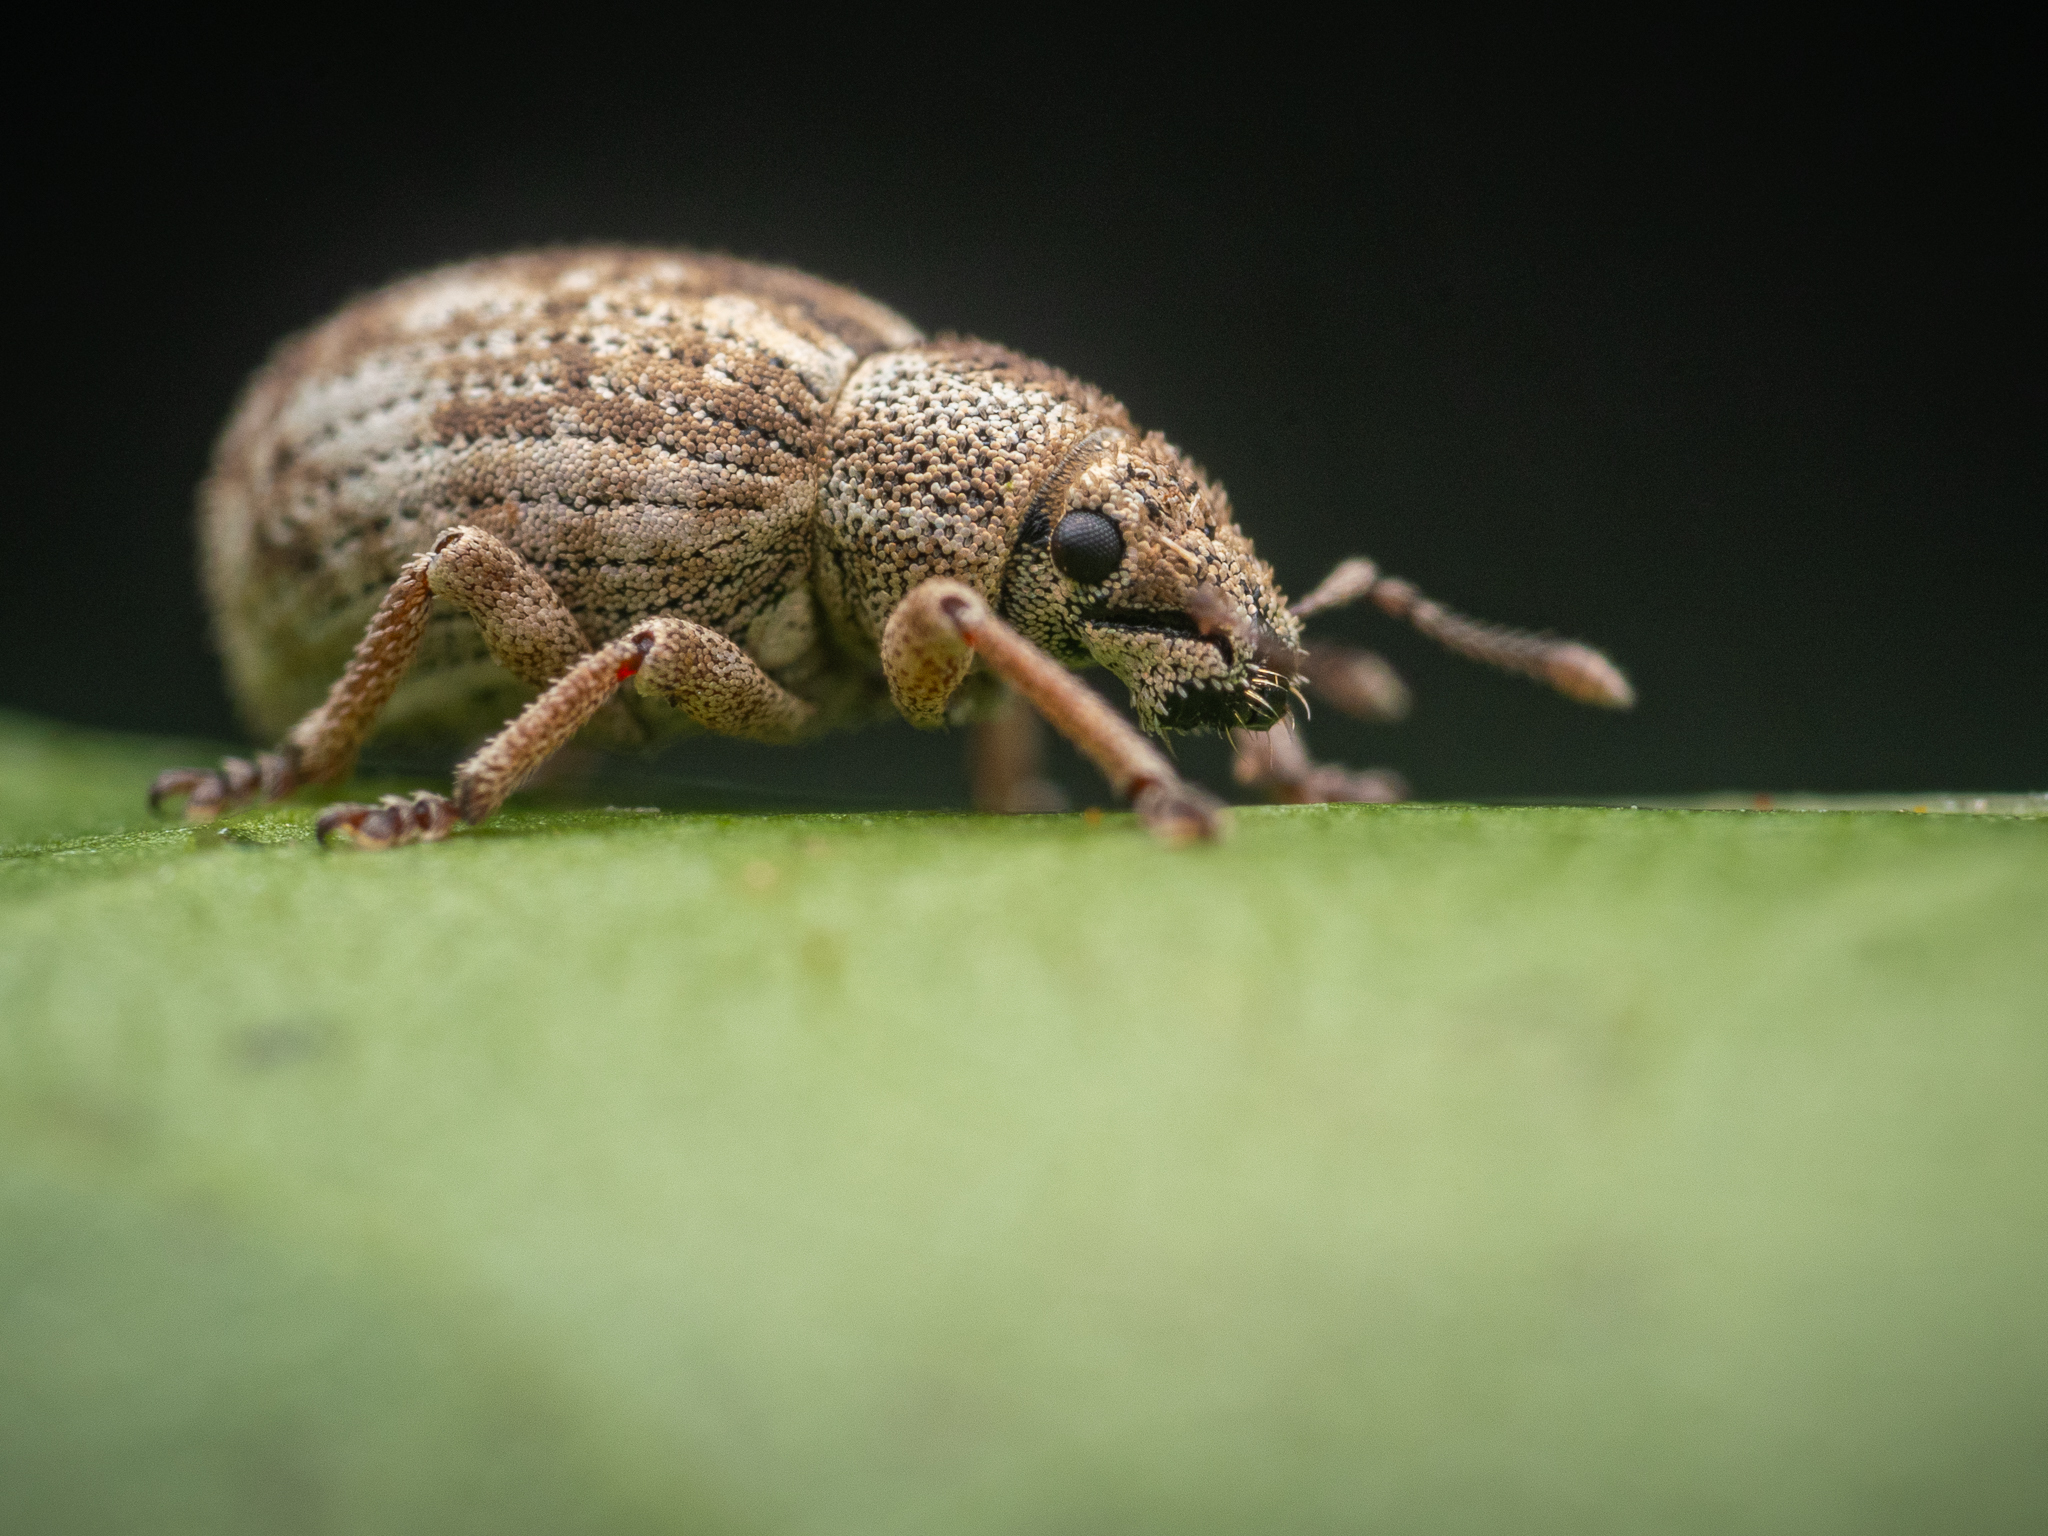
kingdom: Animalia
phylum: Arthropoda
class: Insecta
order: Coleoptera
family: Curculionidae
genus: Strophosoma
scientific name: Strophosoma capitatum
